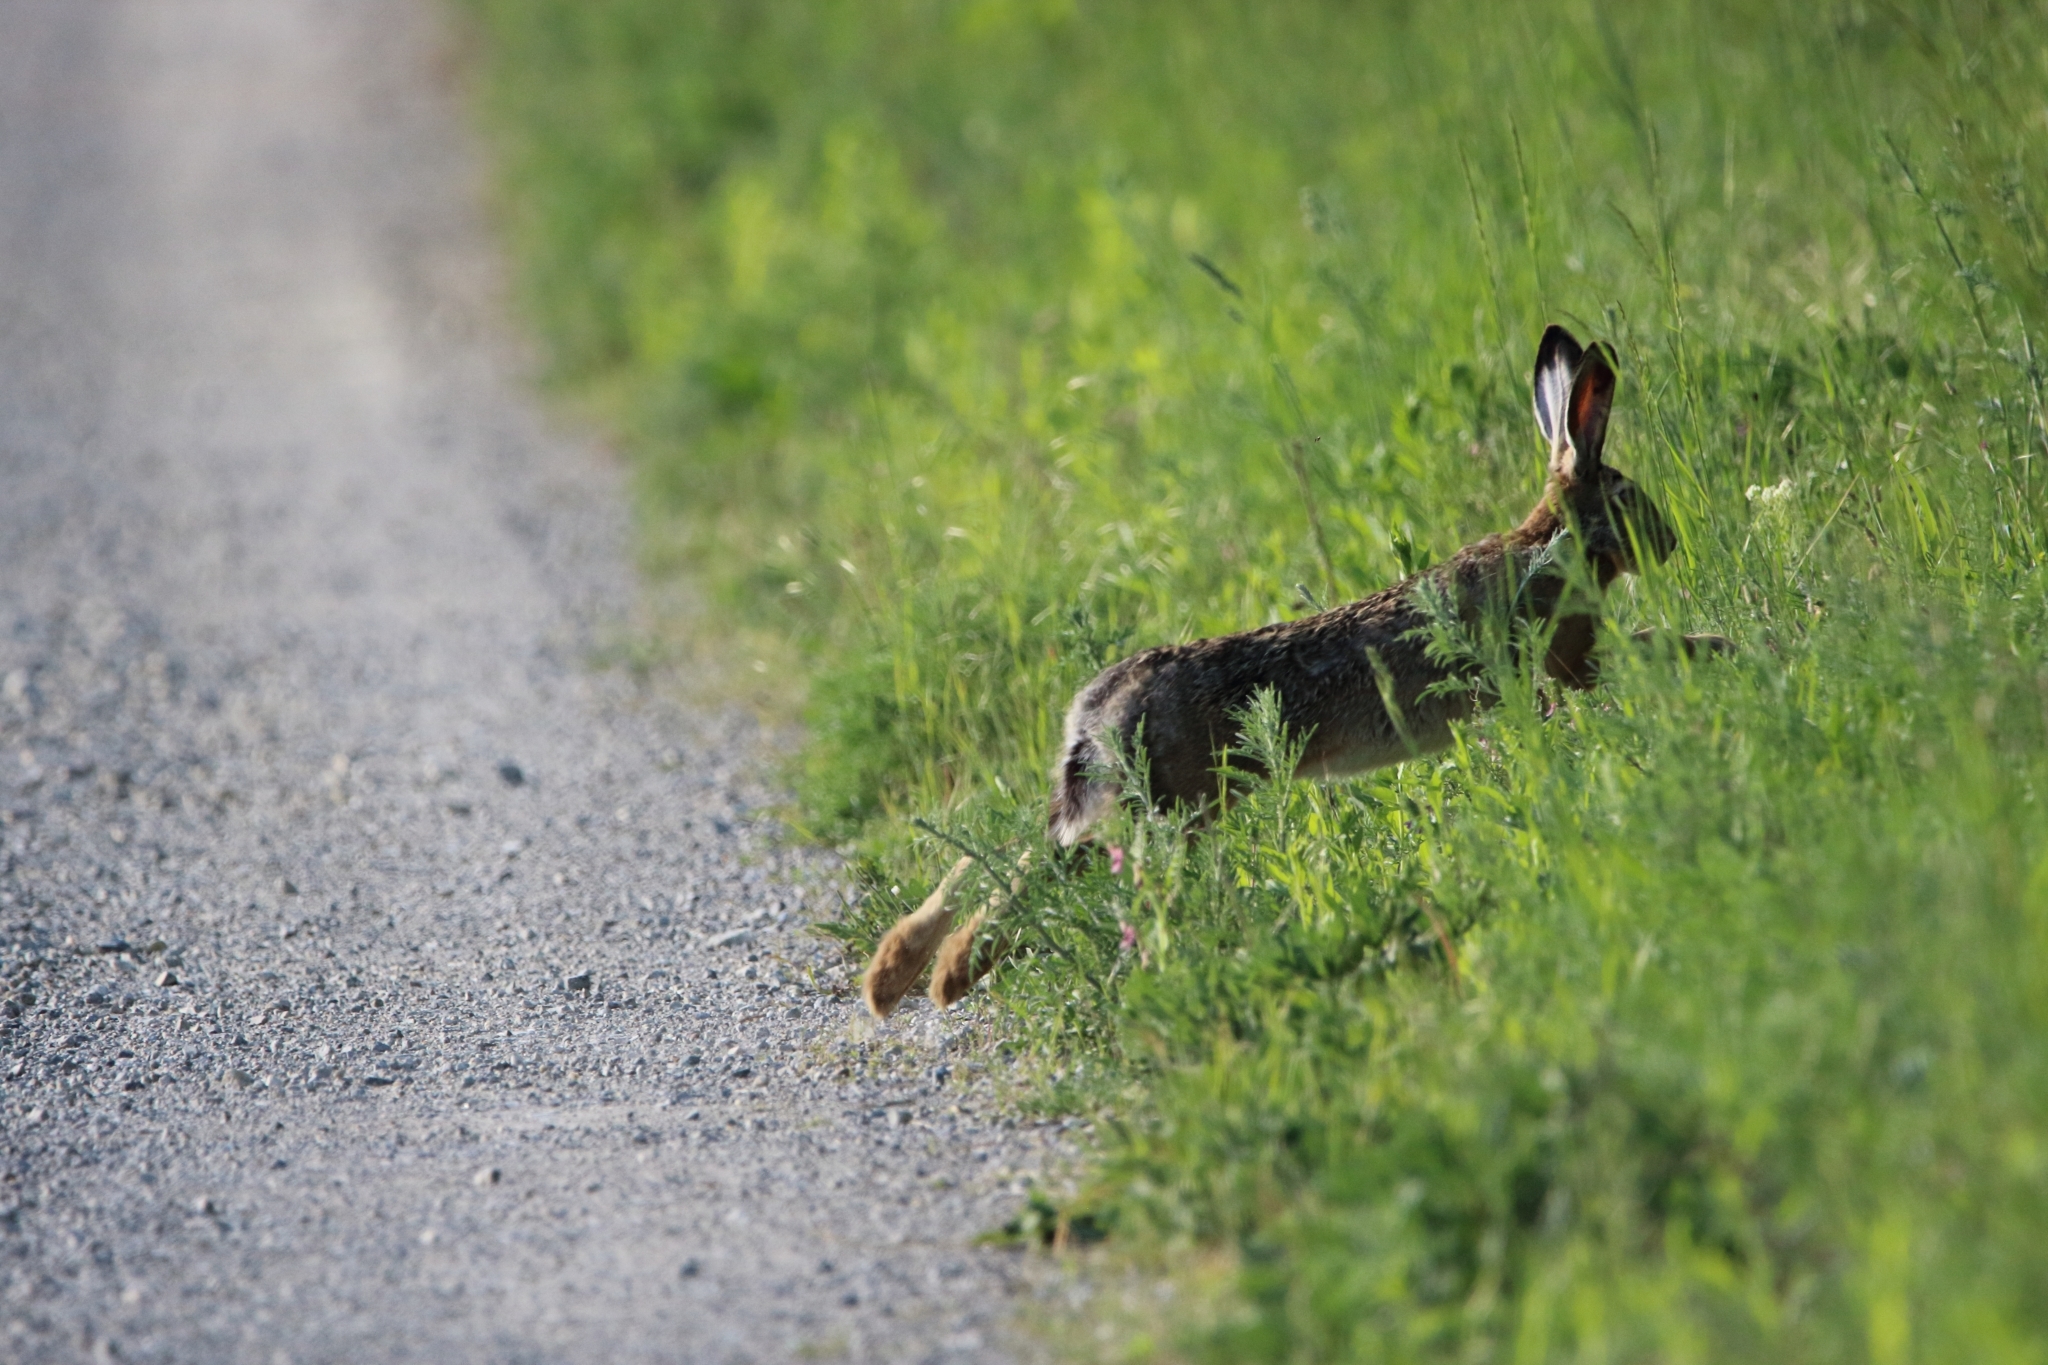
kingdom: Animalia
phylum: Chordata
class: Mammalia
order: Lagomorpha
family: Leporidae
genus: Lepus
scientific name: Lepus europaeus
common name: European hare
